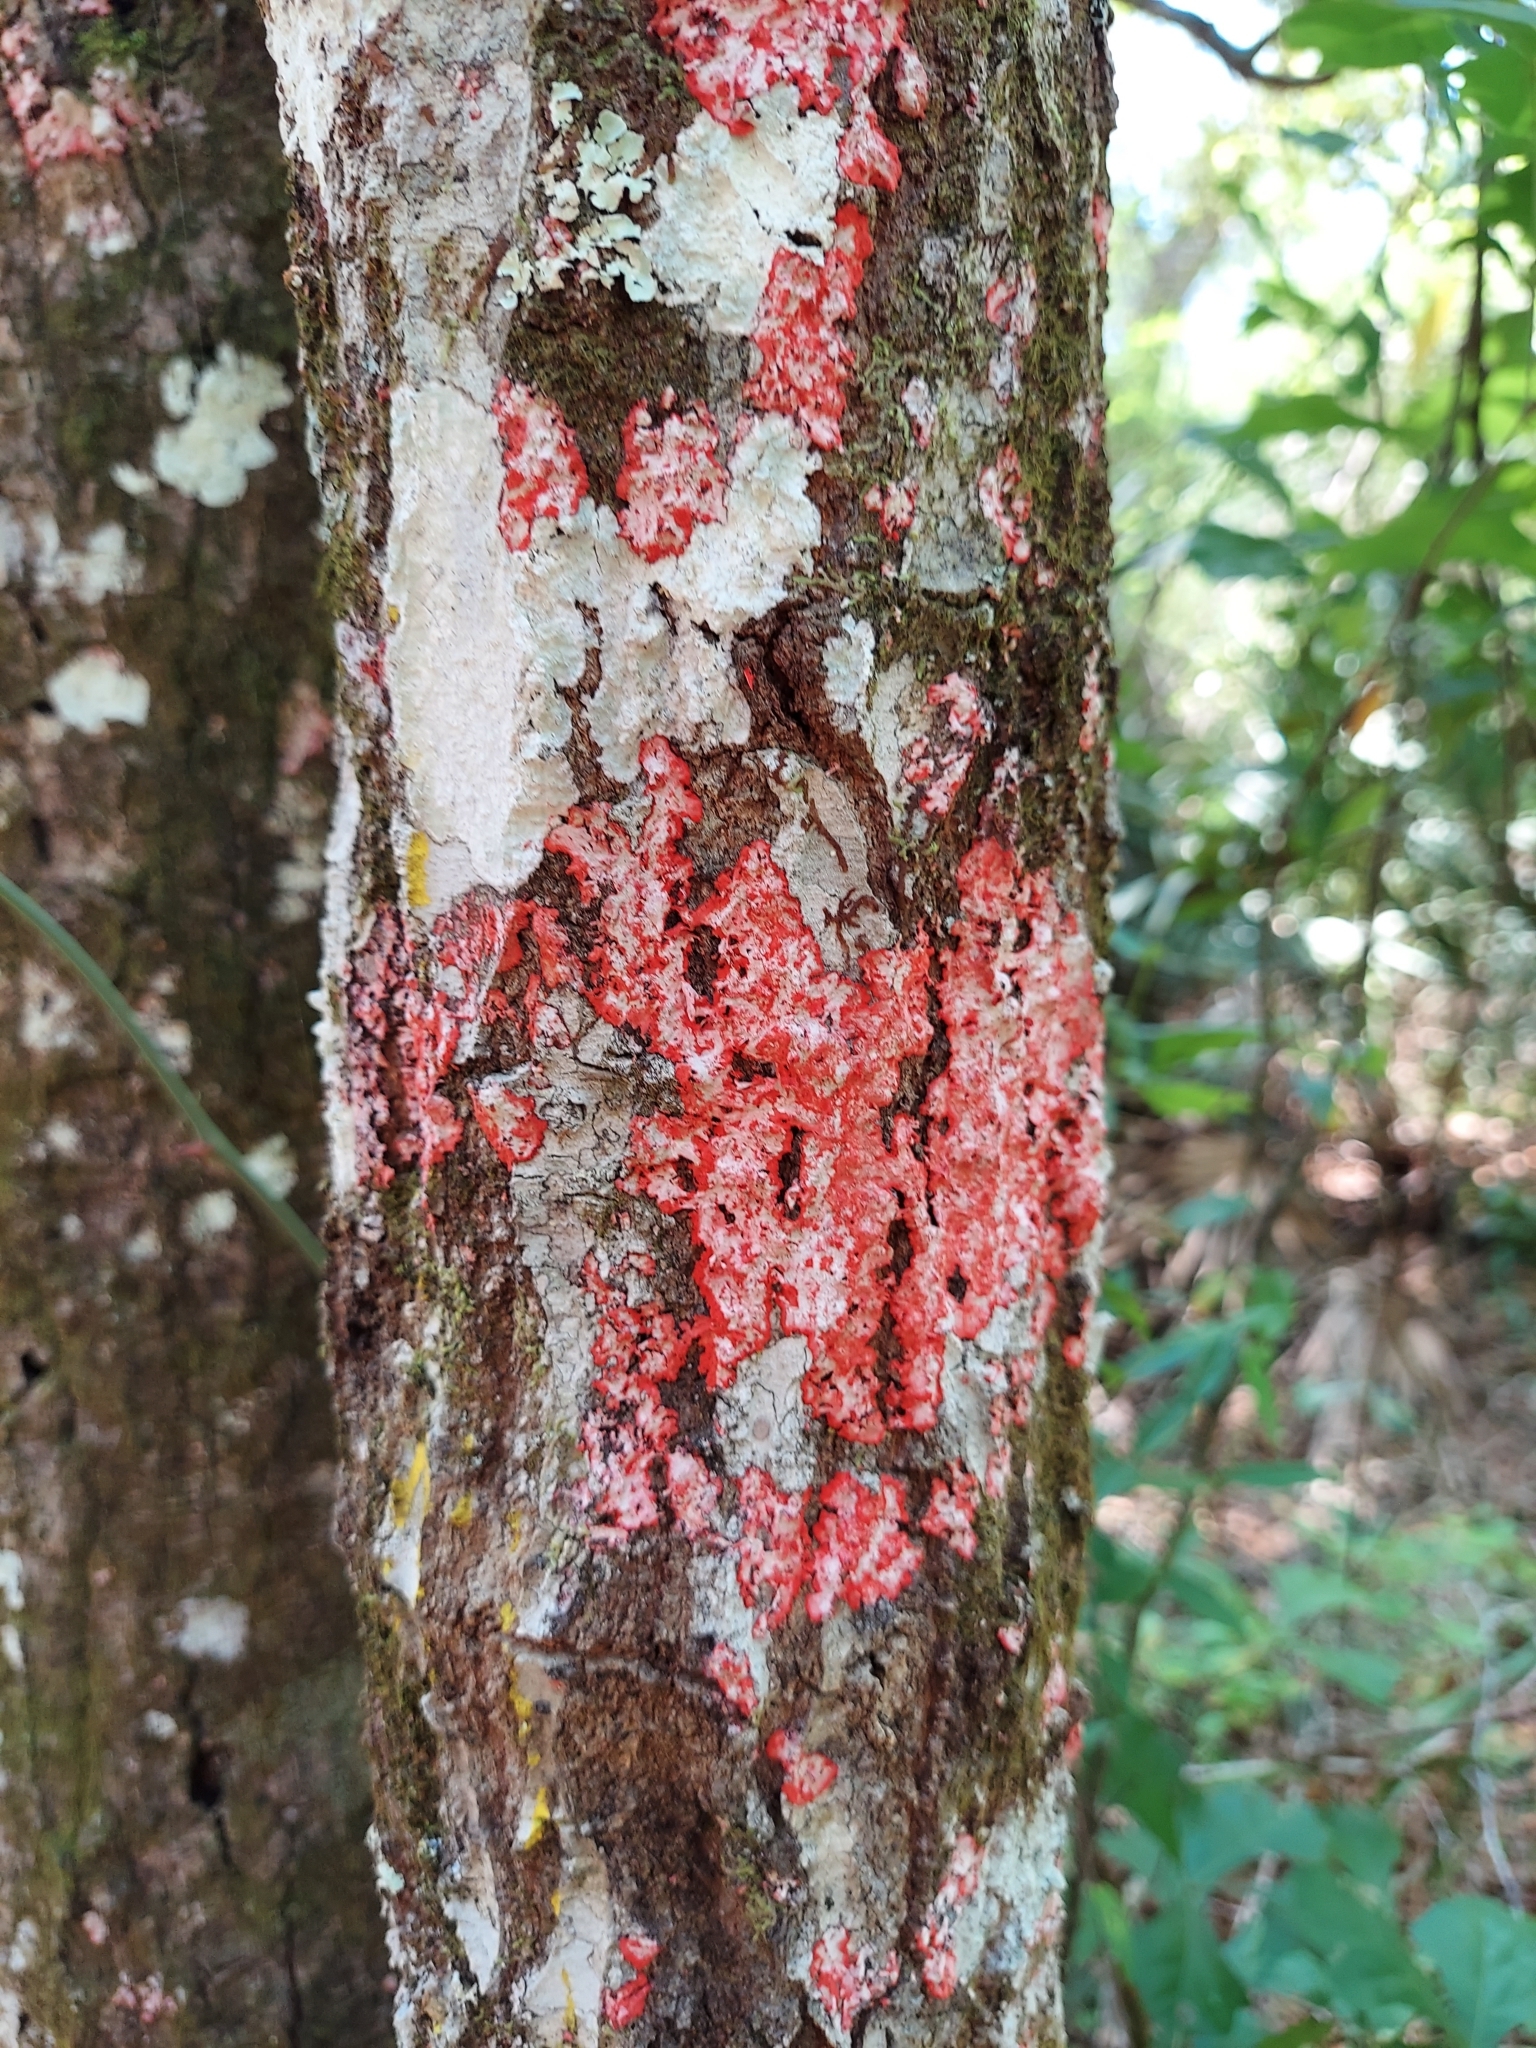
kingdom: Fungi
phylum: Ascomycota
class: Arthoniomycetes
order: Arthoniales
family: Arthoniaceae
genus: Herpothallon
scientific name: Herpothallon rubrocinctum
